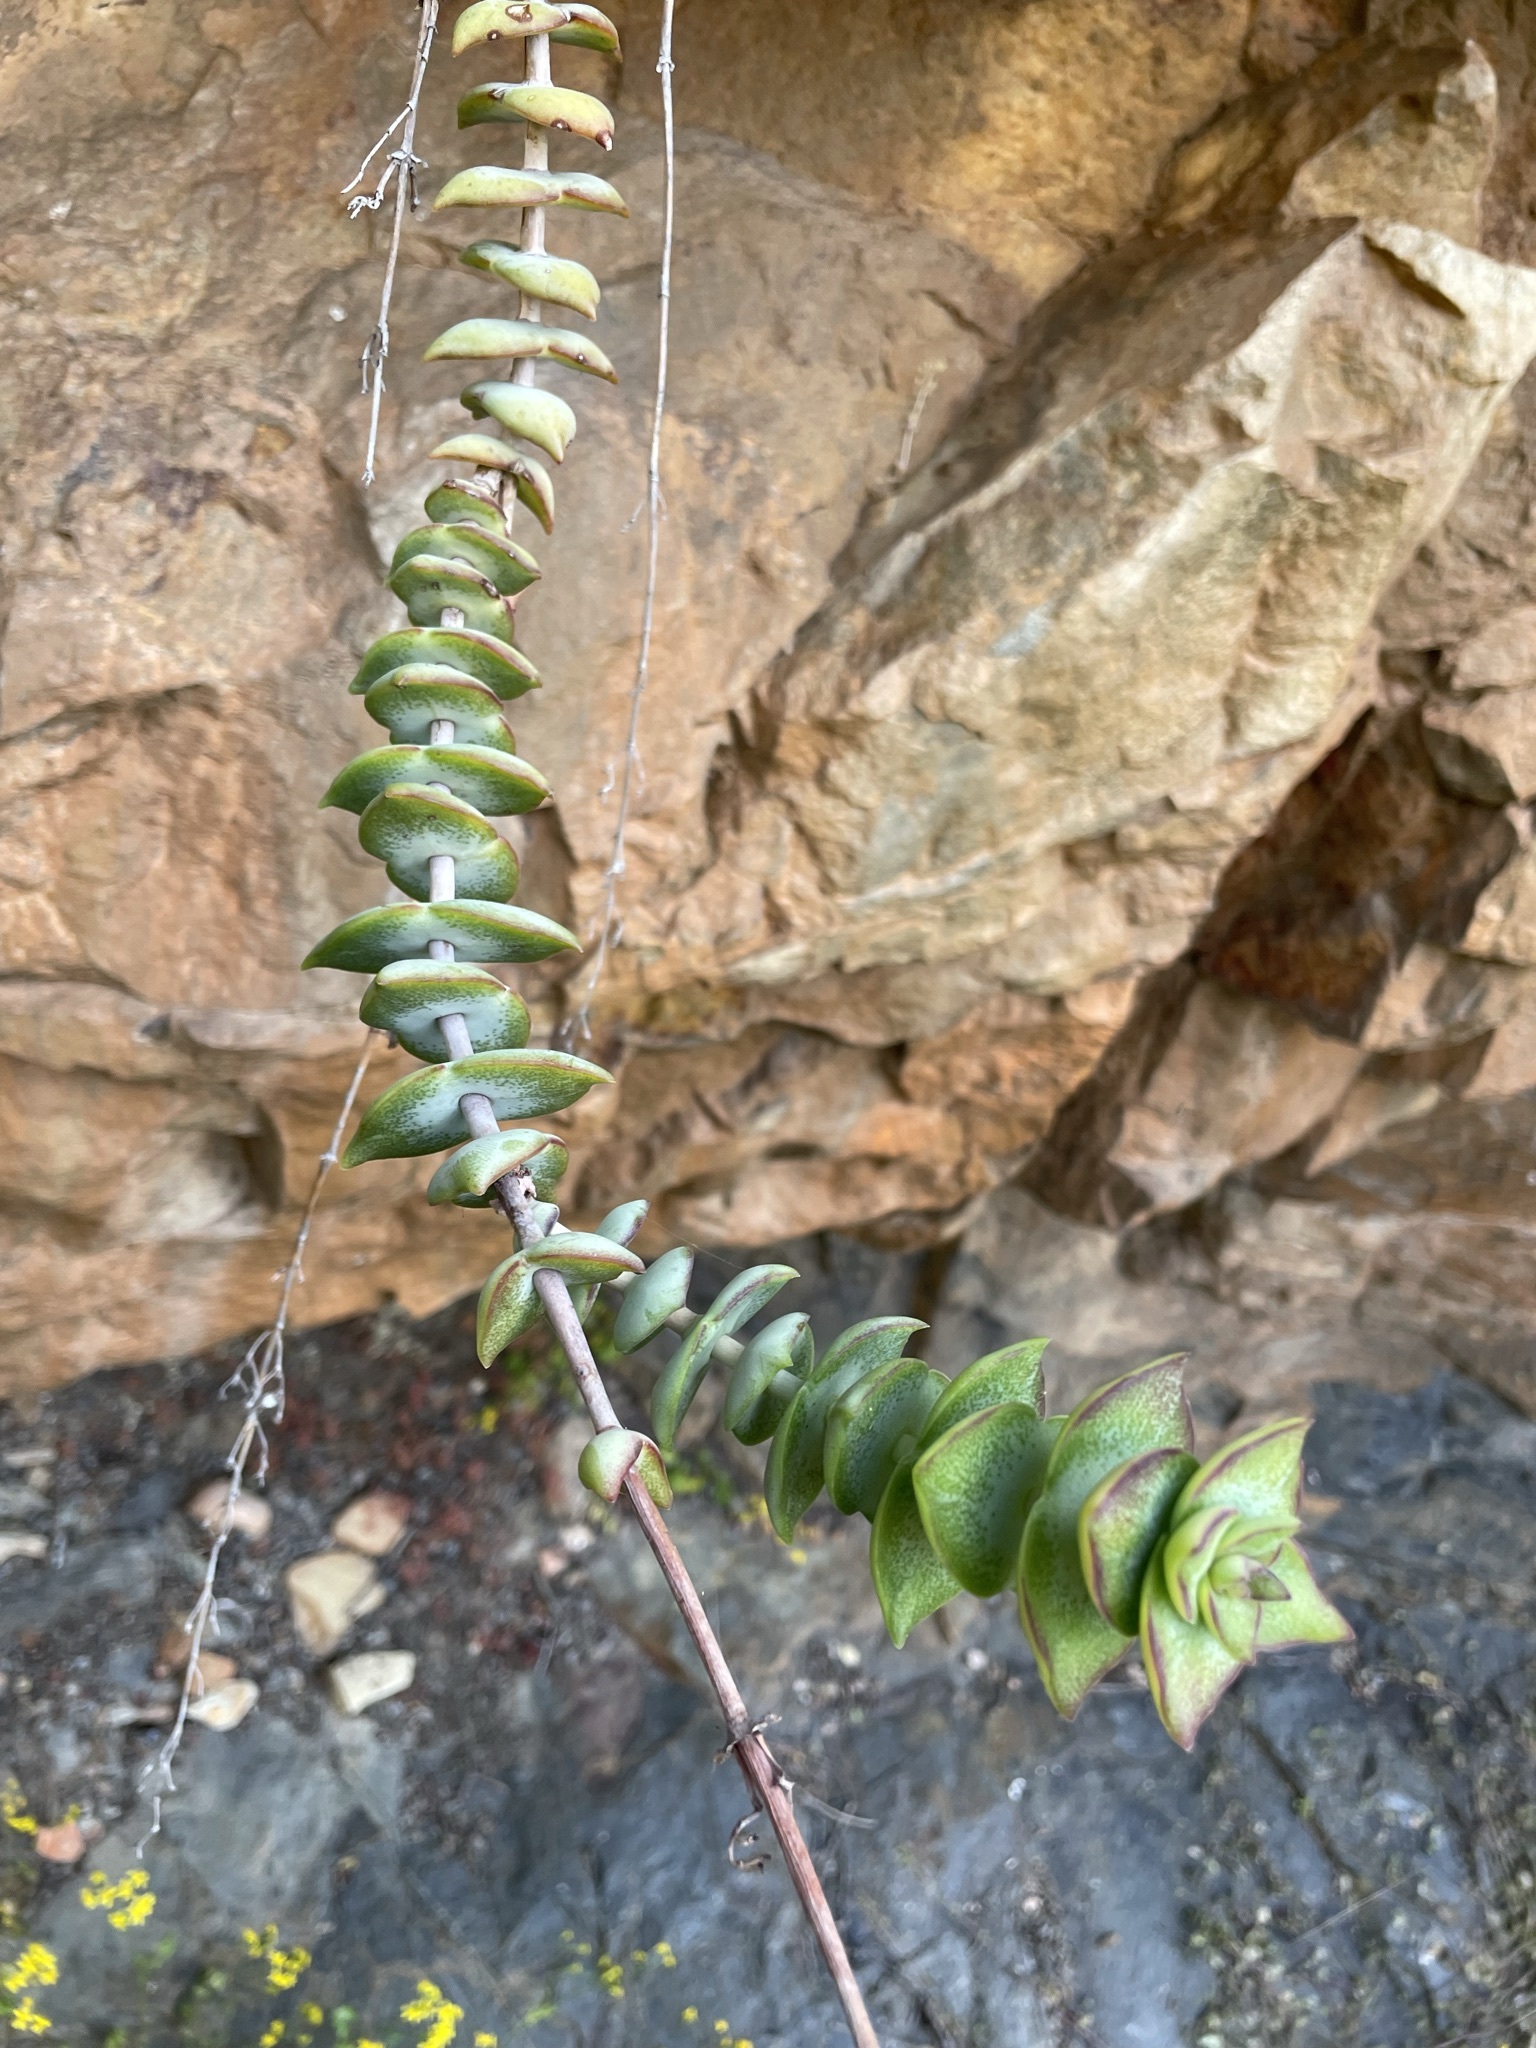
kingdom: Plantae
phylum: Tracheophyta
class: Magnoliopsida
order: Saxifragales
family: Crassulaceae
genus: Crassula
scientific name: Crassula perforata
